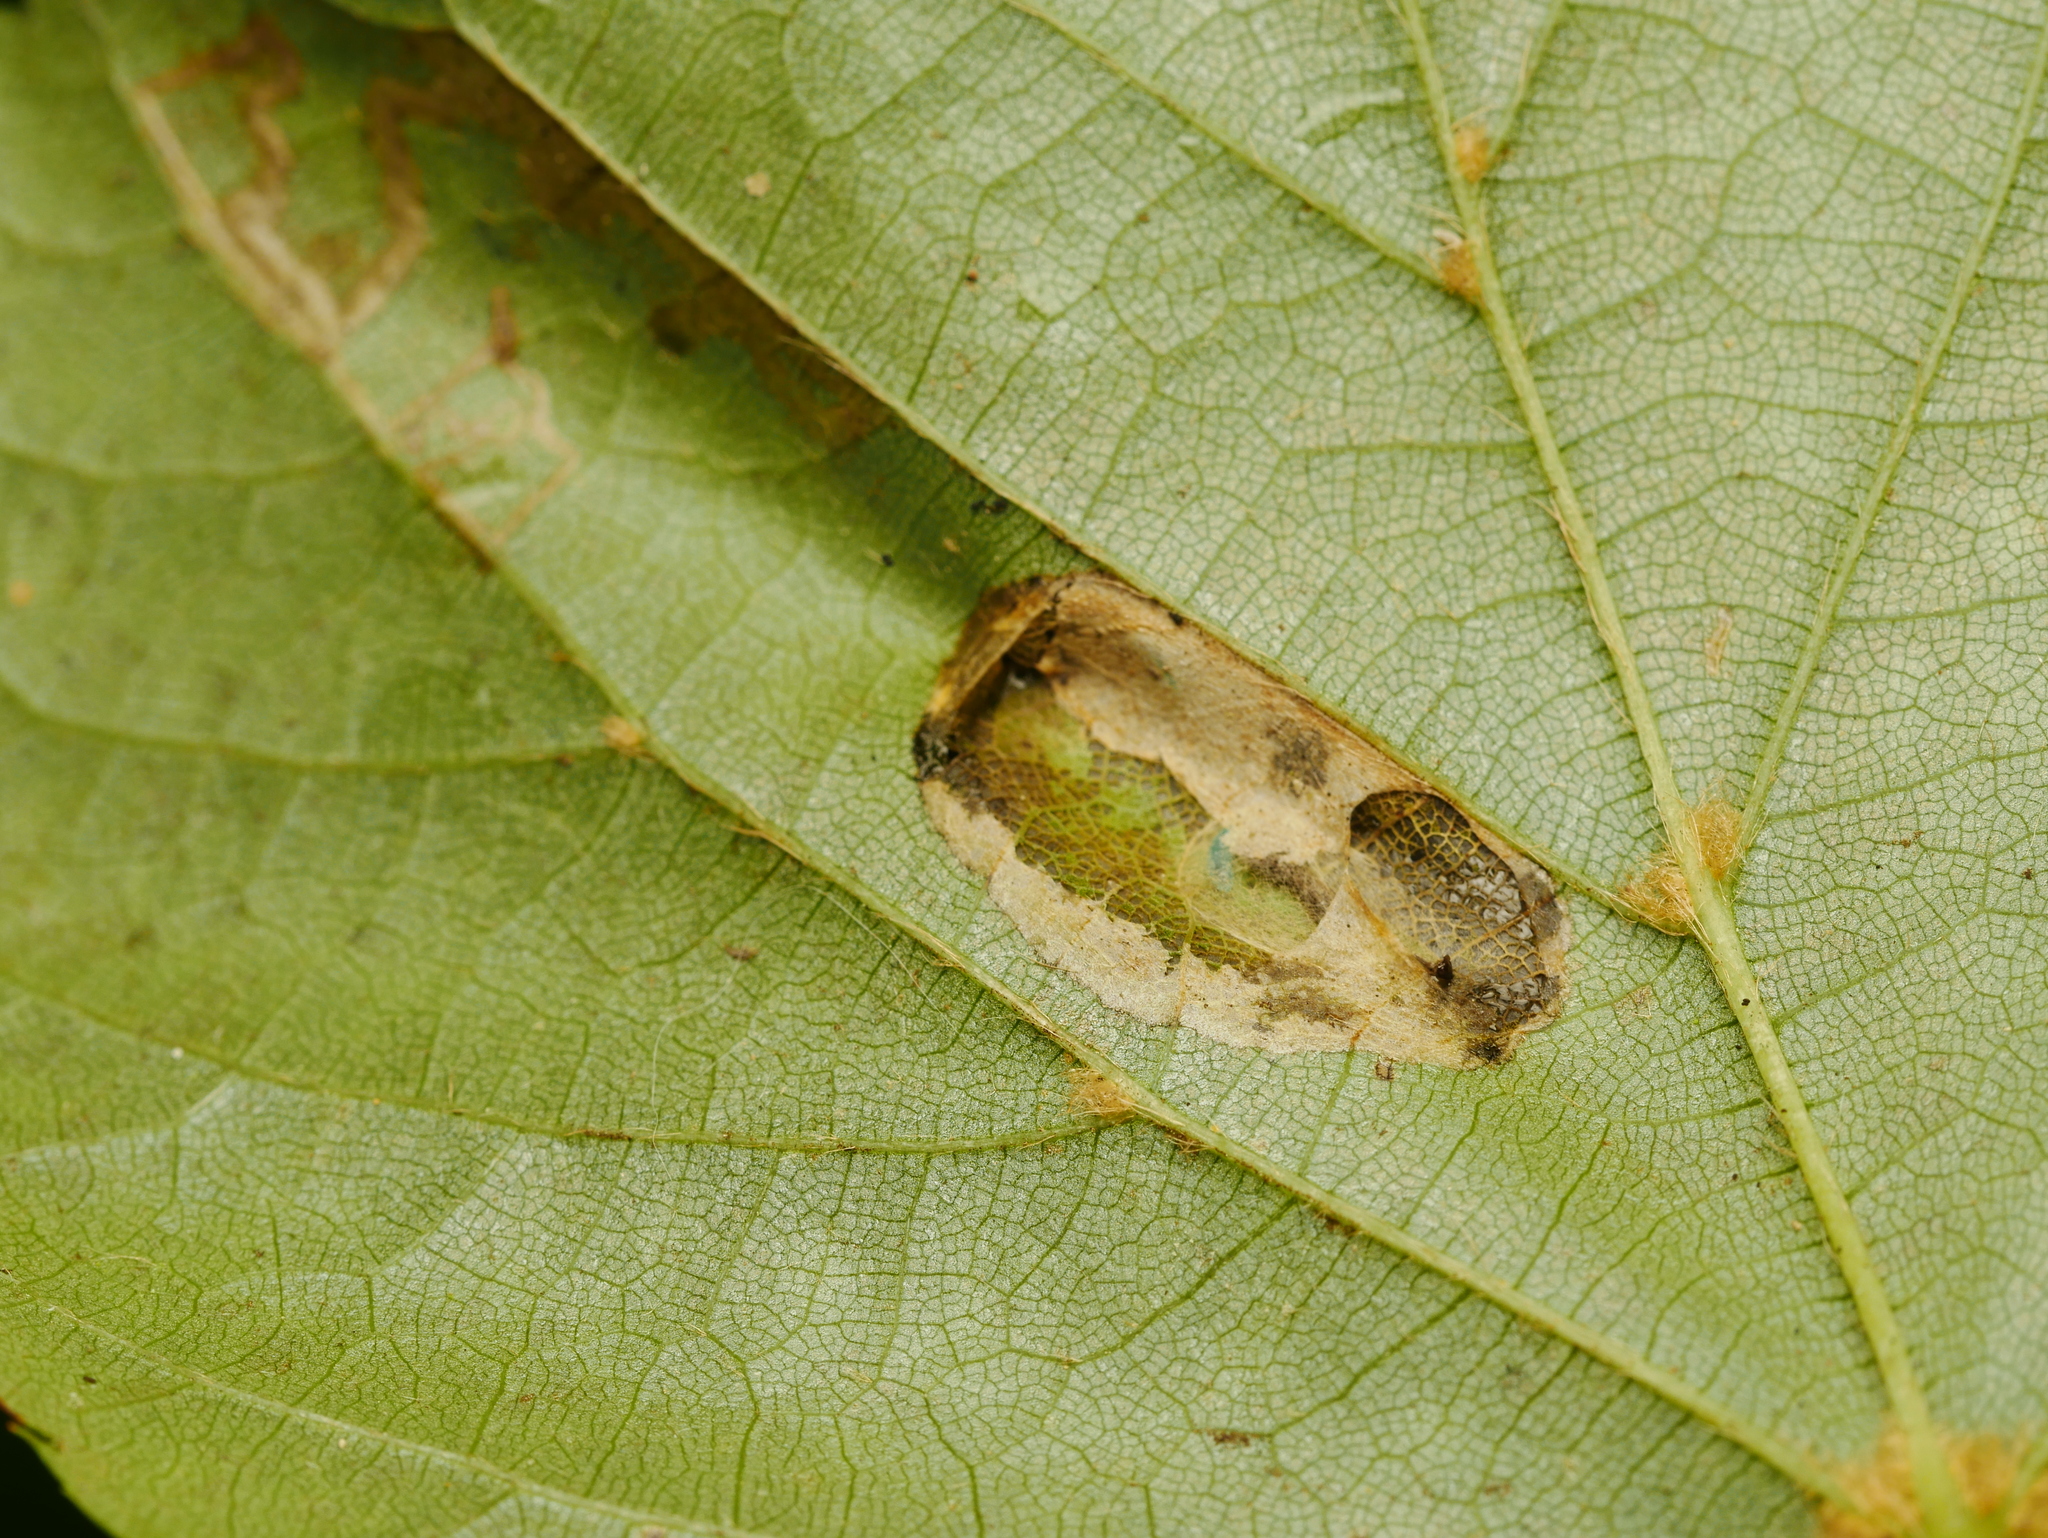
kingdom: Animalia
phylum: Arthropoda
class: Insecta
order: Lepidoptera
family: Gracillariidae
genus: Phyllonorycter
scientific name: Phyllonorycter issikii
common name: Linden midget
